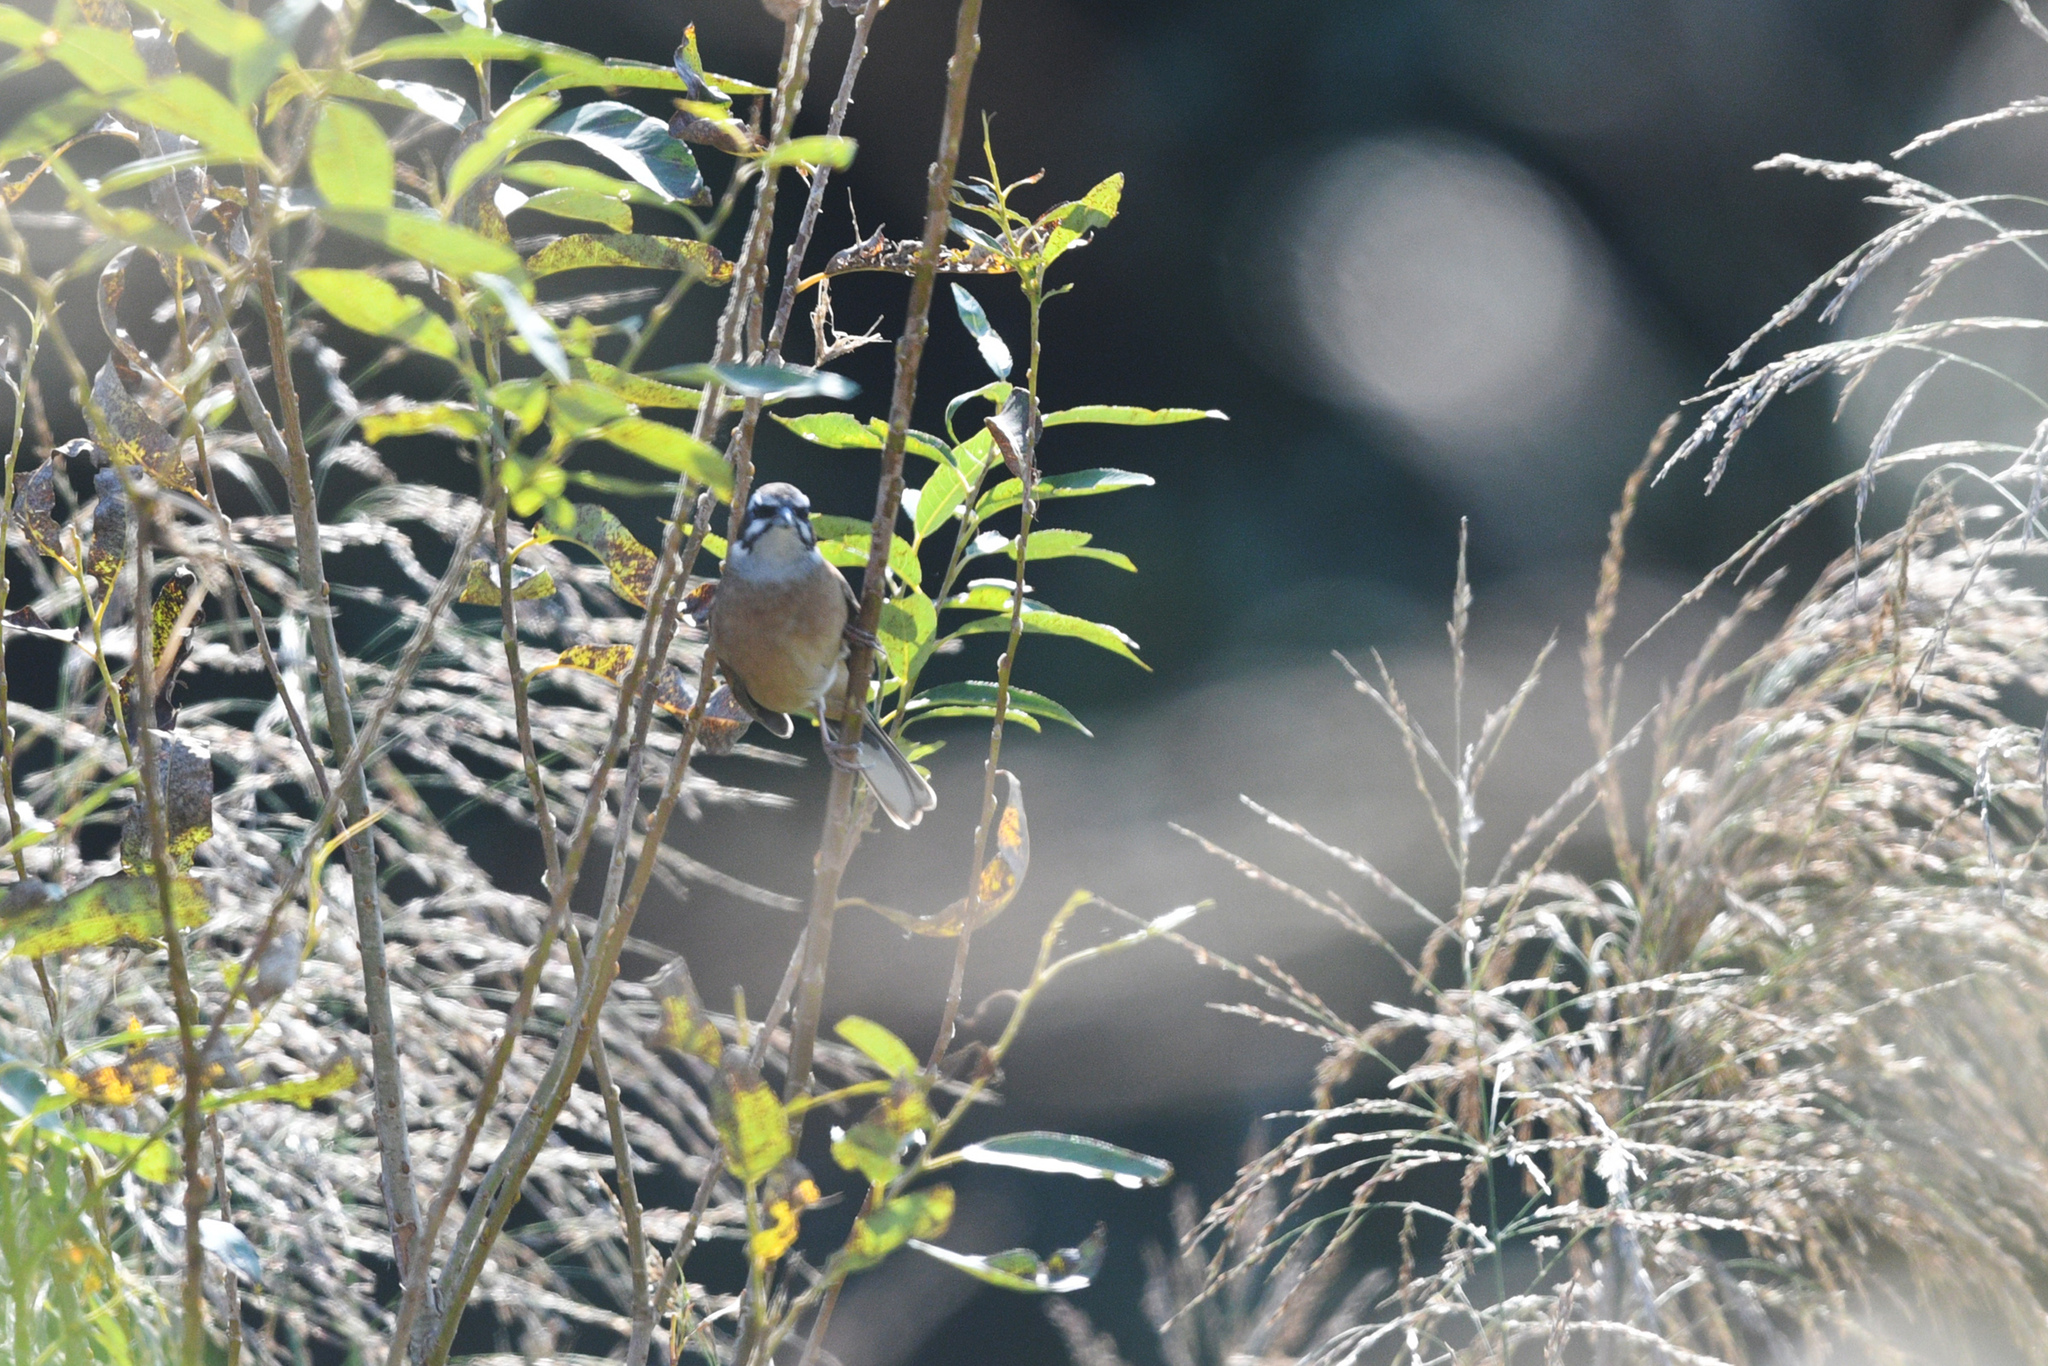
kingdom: Animalia
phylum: Chordata
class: Aves
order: Passeriformes
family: Emberizidae
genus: Emberiza
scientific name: Emberiza cioides
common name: Meadow bunting
